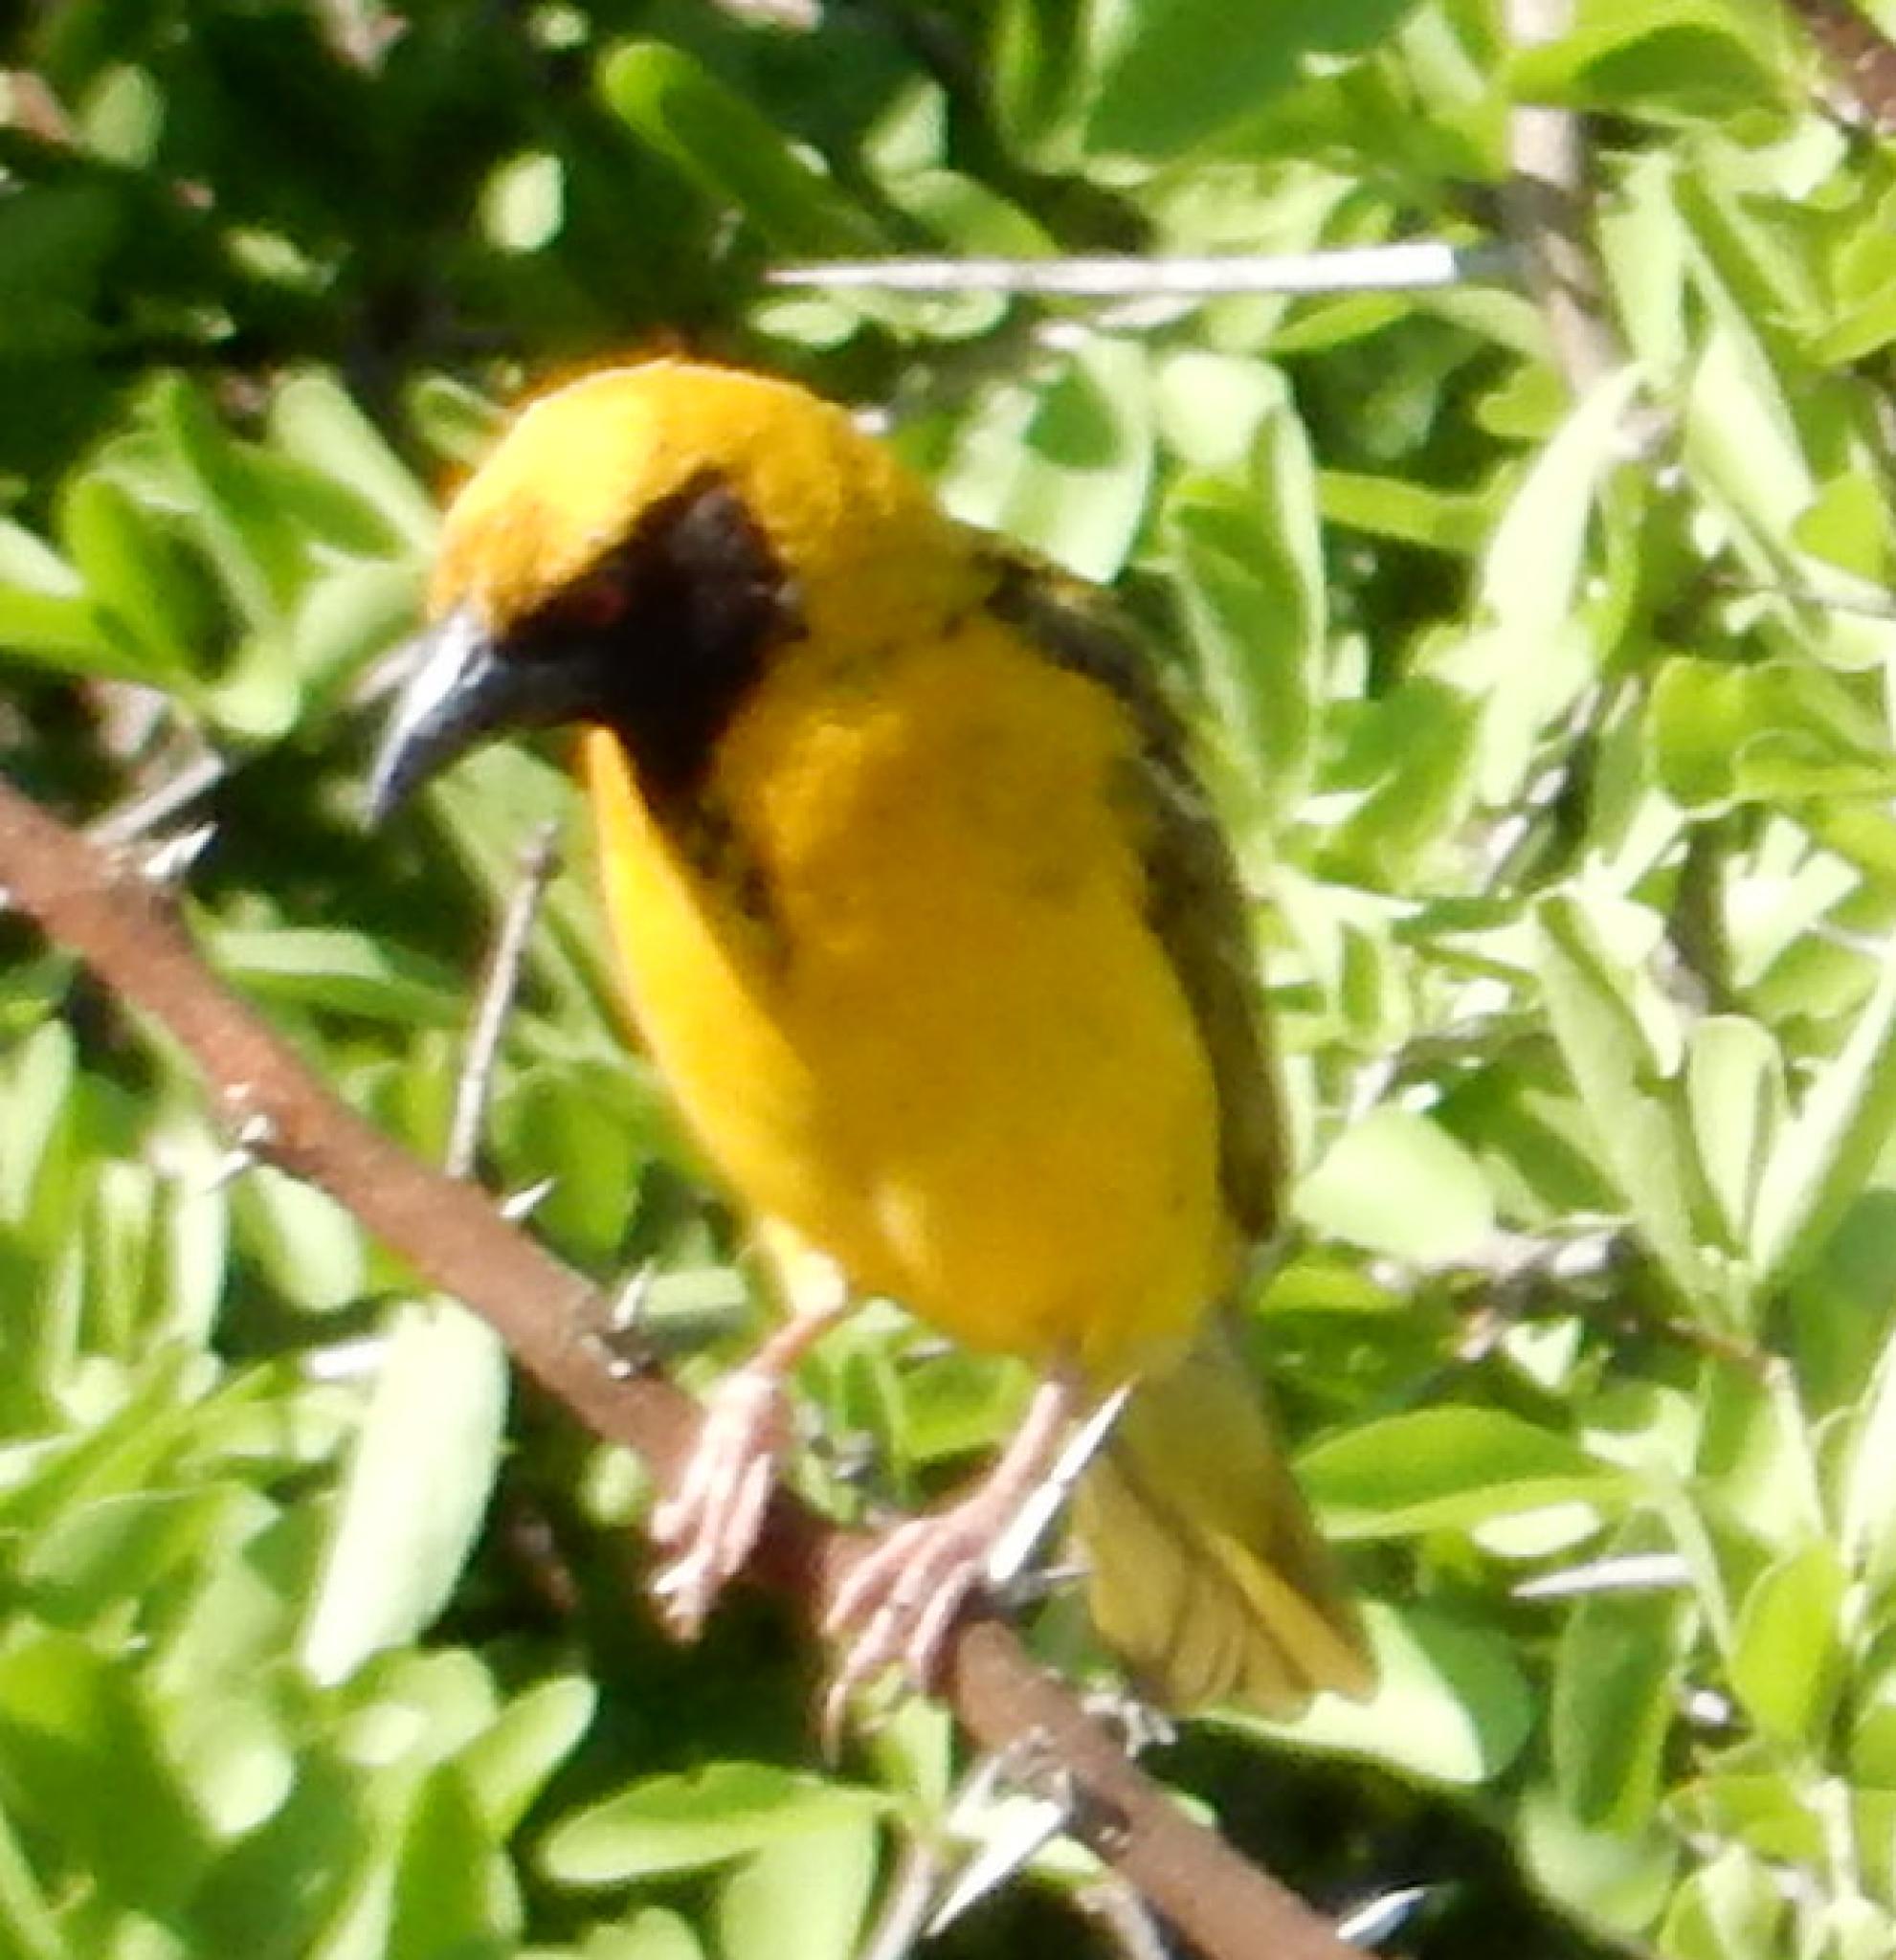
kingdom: Animalia
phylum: Chordata
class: Aves
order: Passeriformes
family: Ploceidae
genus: Ploceus
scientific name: Ploceus cucullatus
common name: Village weaver
